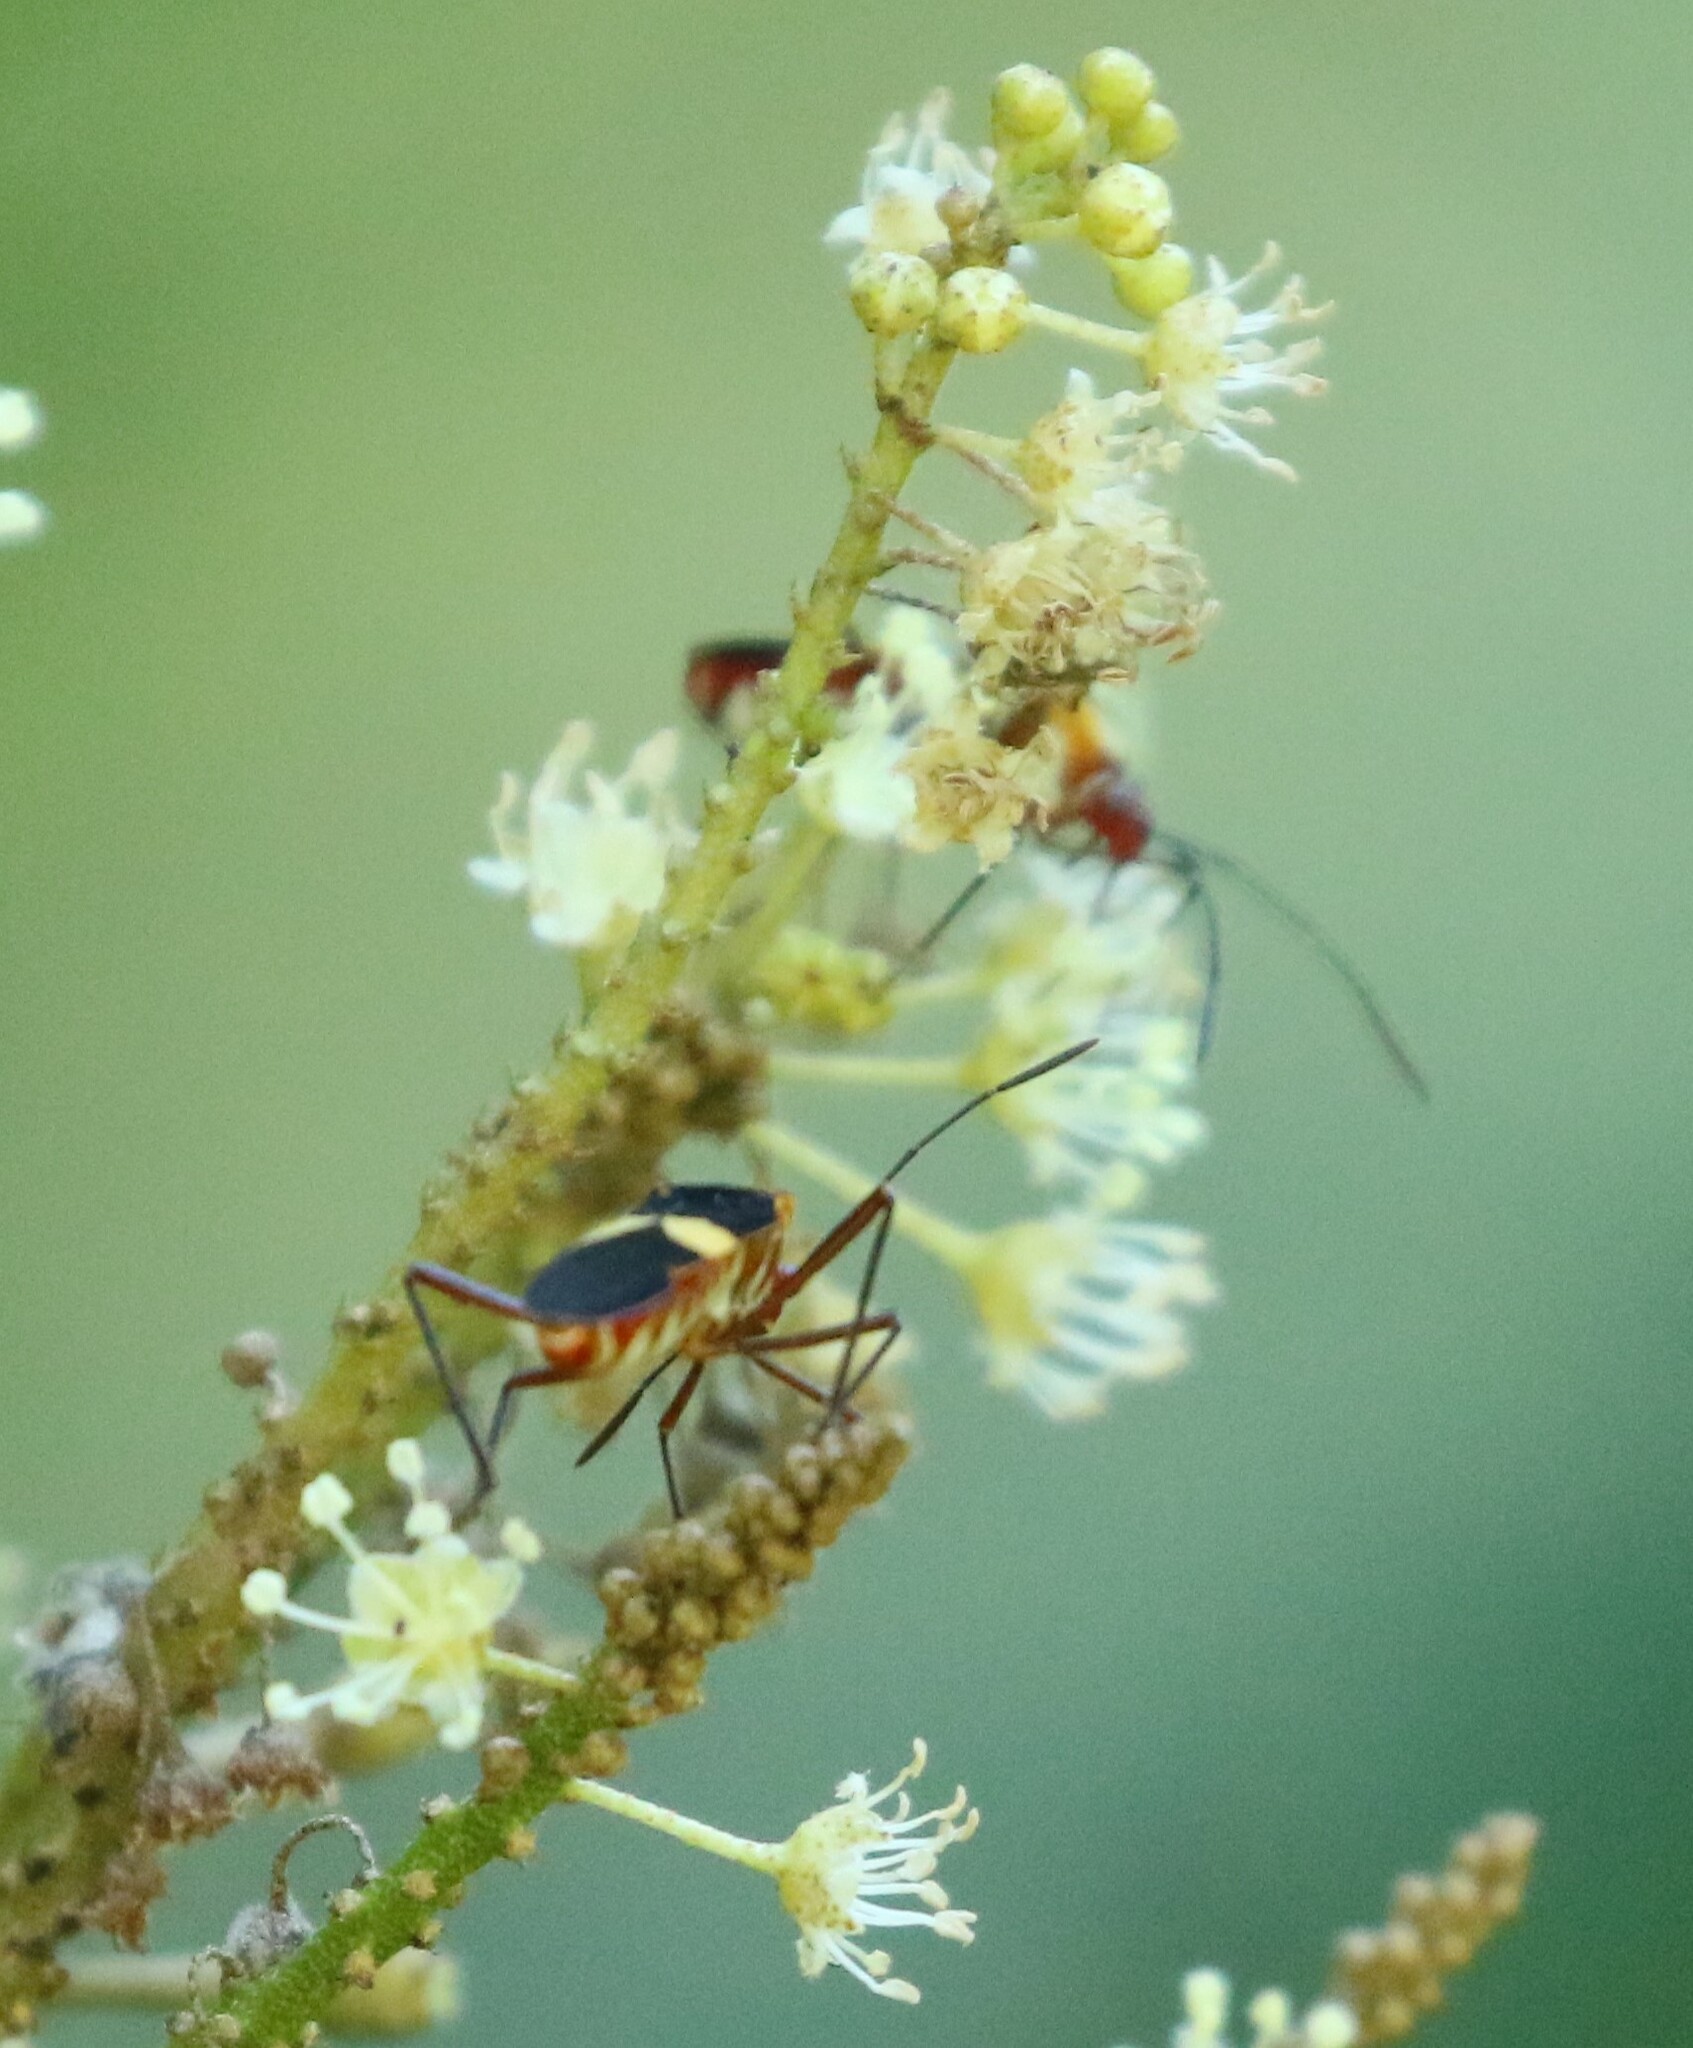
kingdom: Animalia
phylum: Arthropoda
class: Insecta
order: Hemiptera
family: Coreidae
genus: Hypselonotus
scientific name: Hypselonotus interruptus
